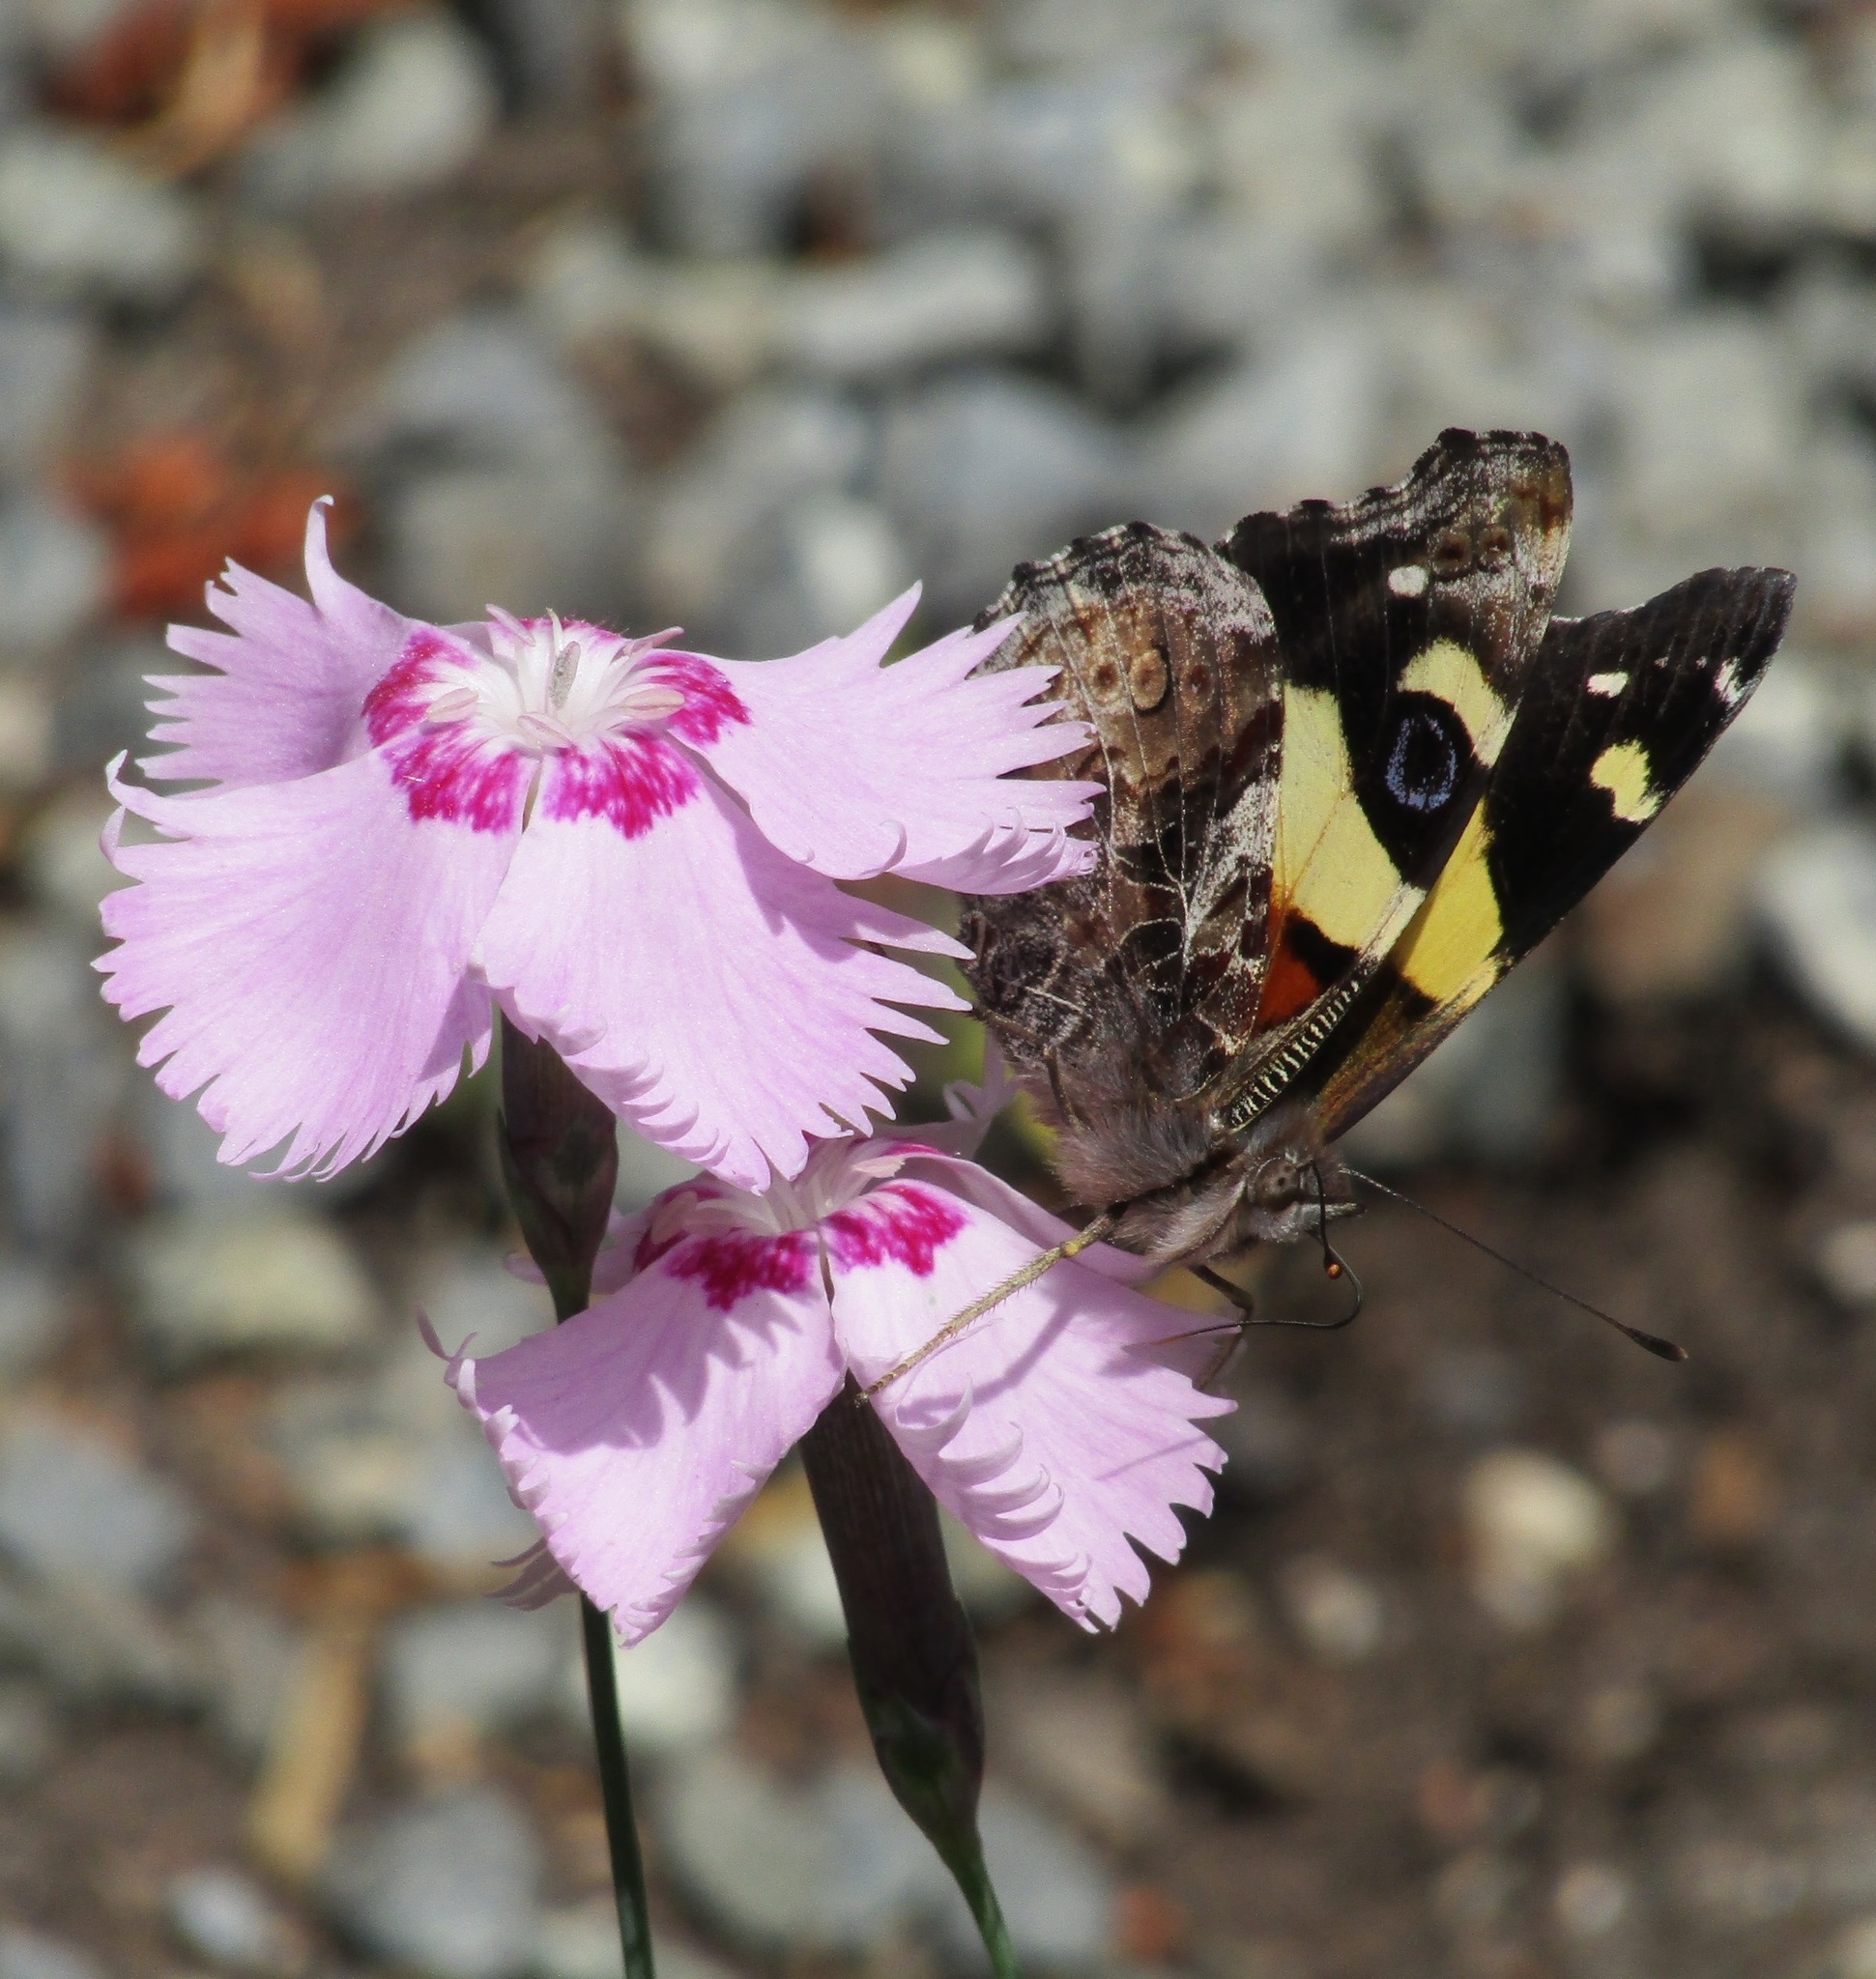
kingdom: Animalia
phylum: Arthropoda
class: Insecta
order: Lepidoptera
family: Nymphalidae
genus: Vanessa
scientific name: Vanessa itea
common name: Yellow admiral
